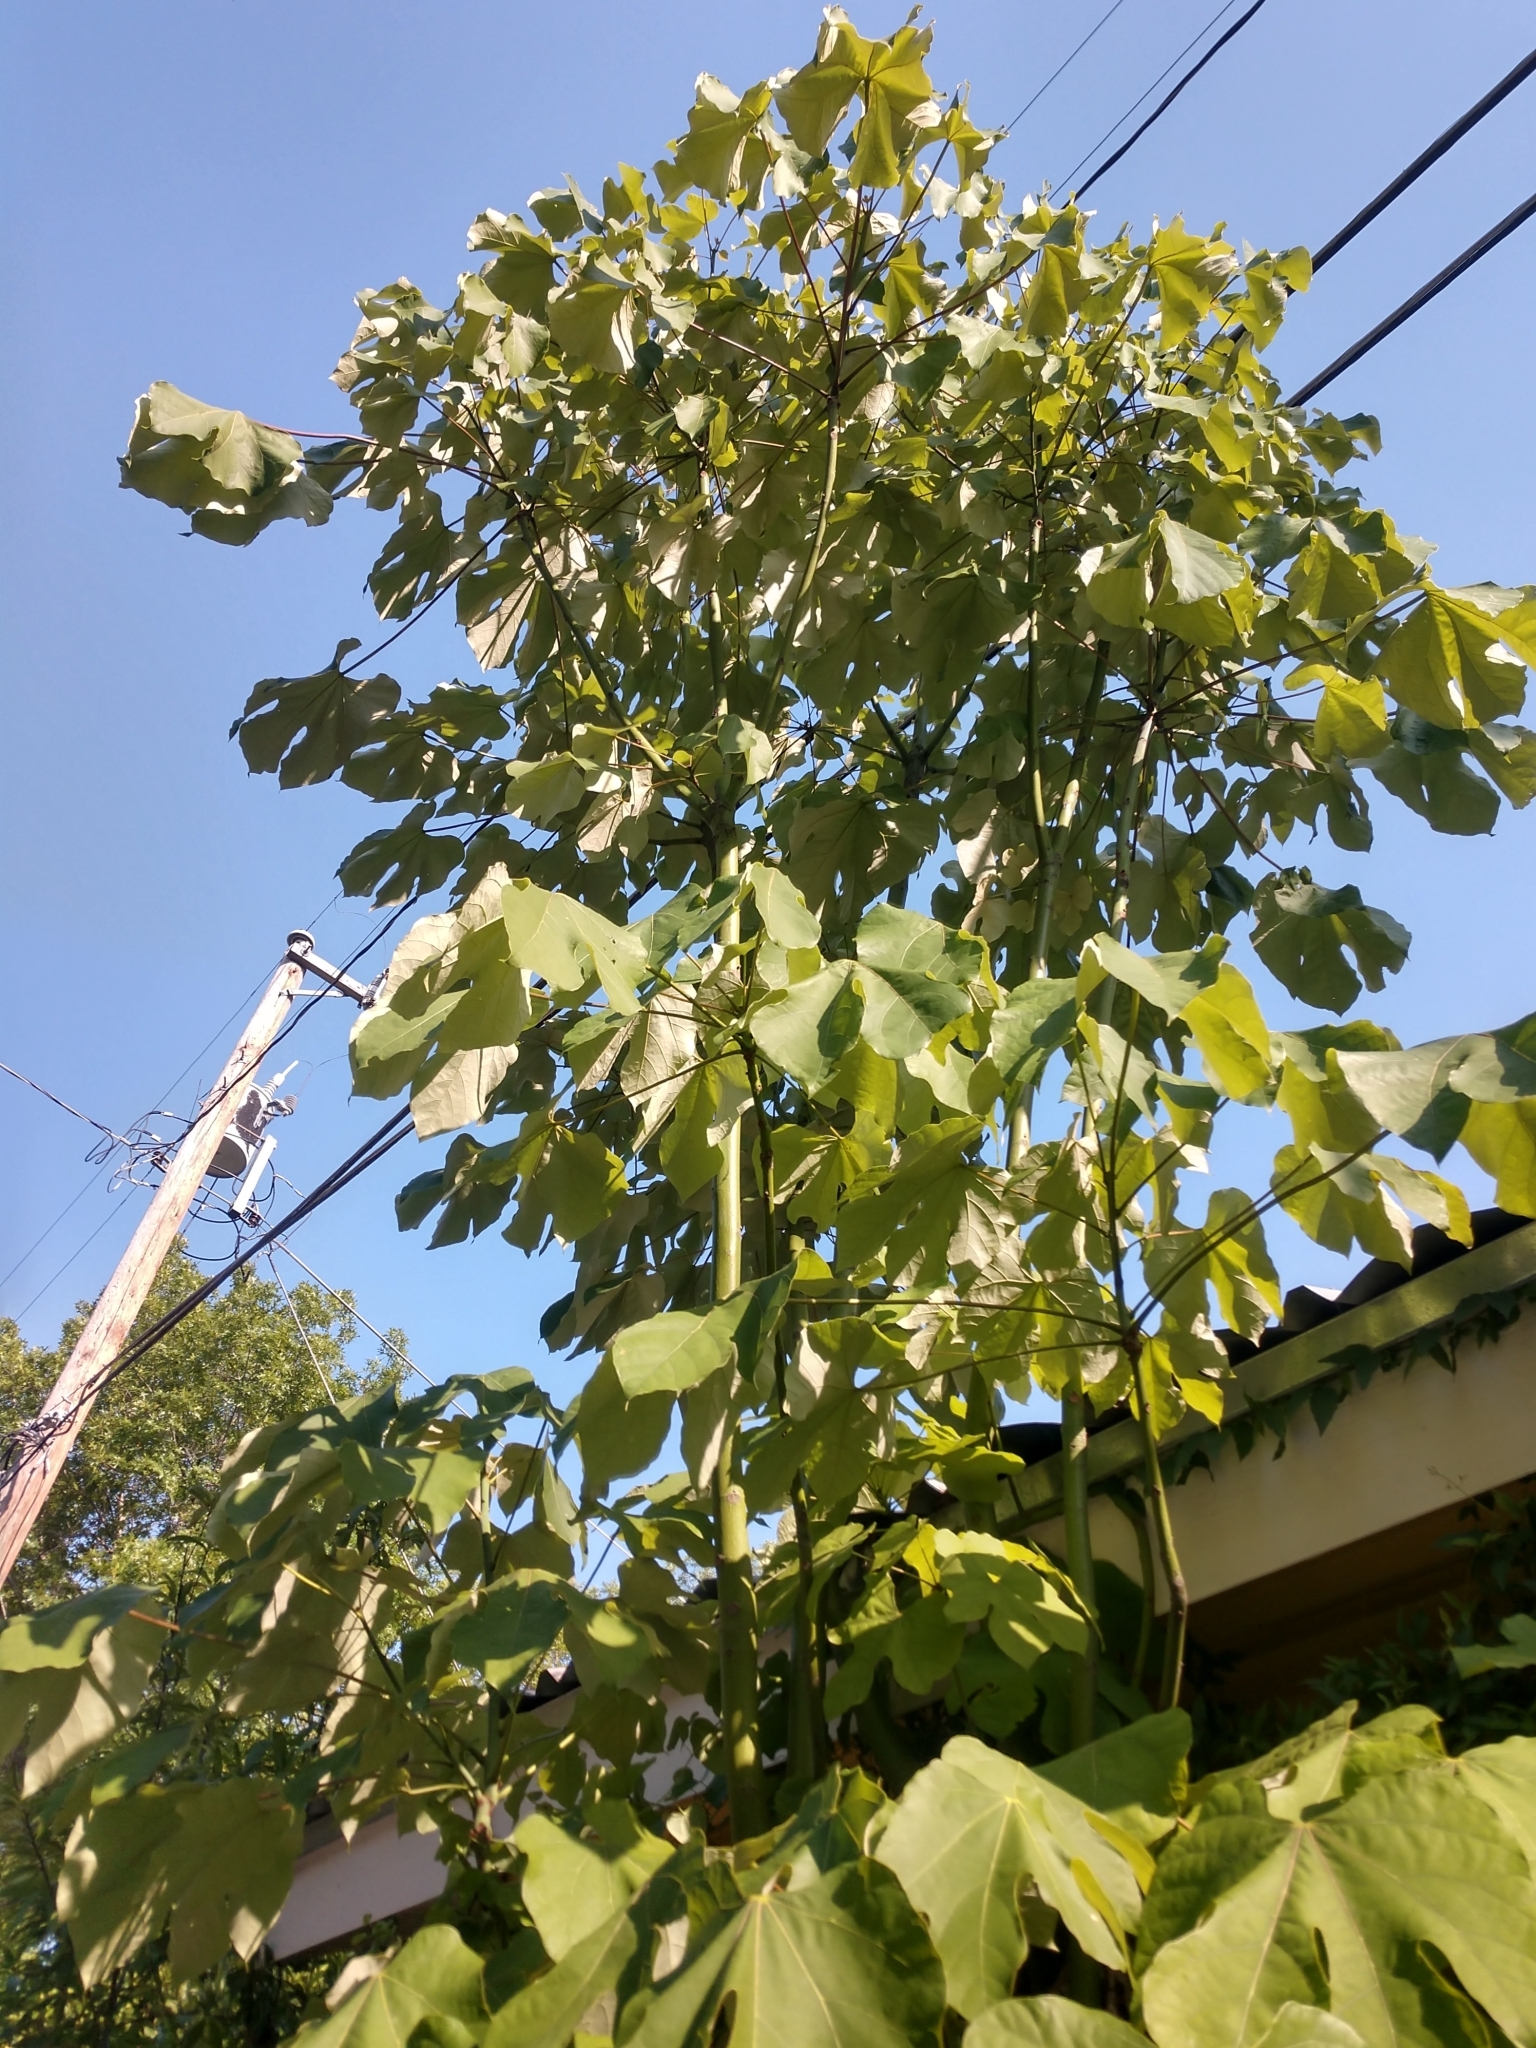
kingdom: Plantae
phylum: Tracheophyta
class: Magnoliopsida
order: Malvales
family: Malvaceae
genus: Firmiana
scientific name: Firmiana simplex
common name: Chinese parasoltree
